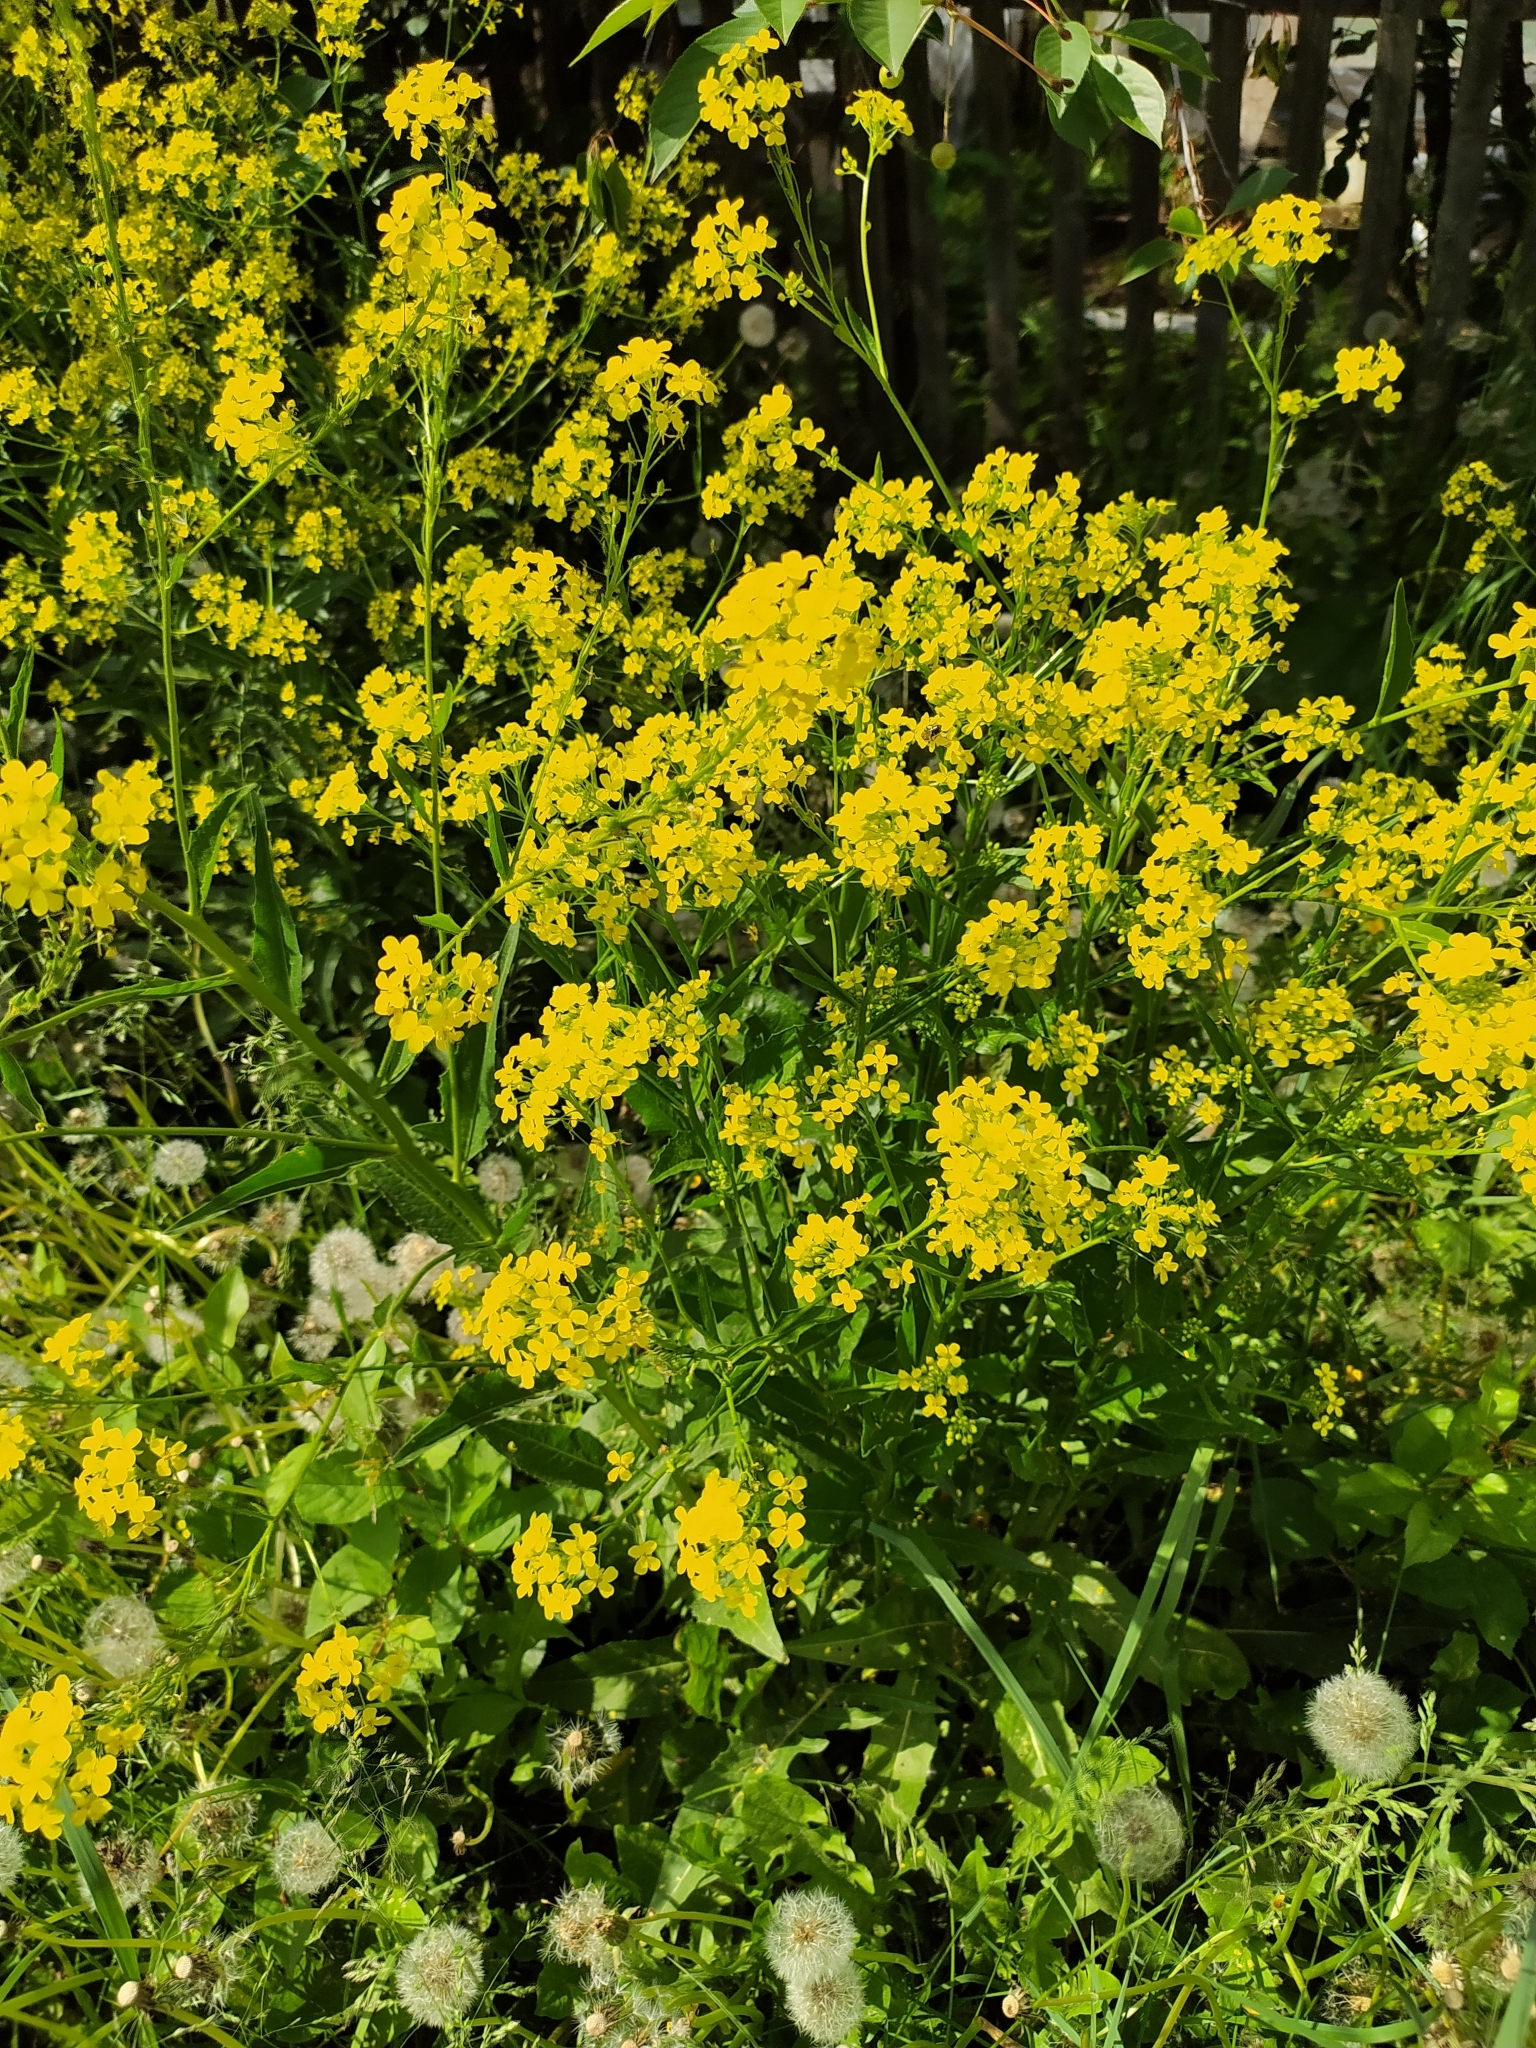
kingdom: Plantae
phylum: Tracheophyta
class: Magnoliopsida
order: Brassicales
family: Brassicaceae
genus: Bunias
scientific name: Bunias orientalis
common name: Warty-cabbage
